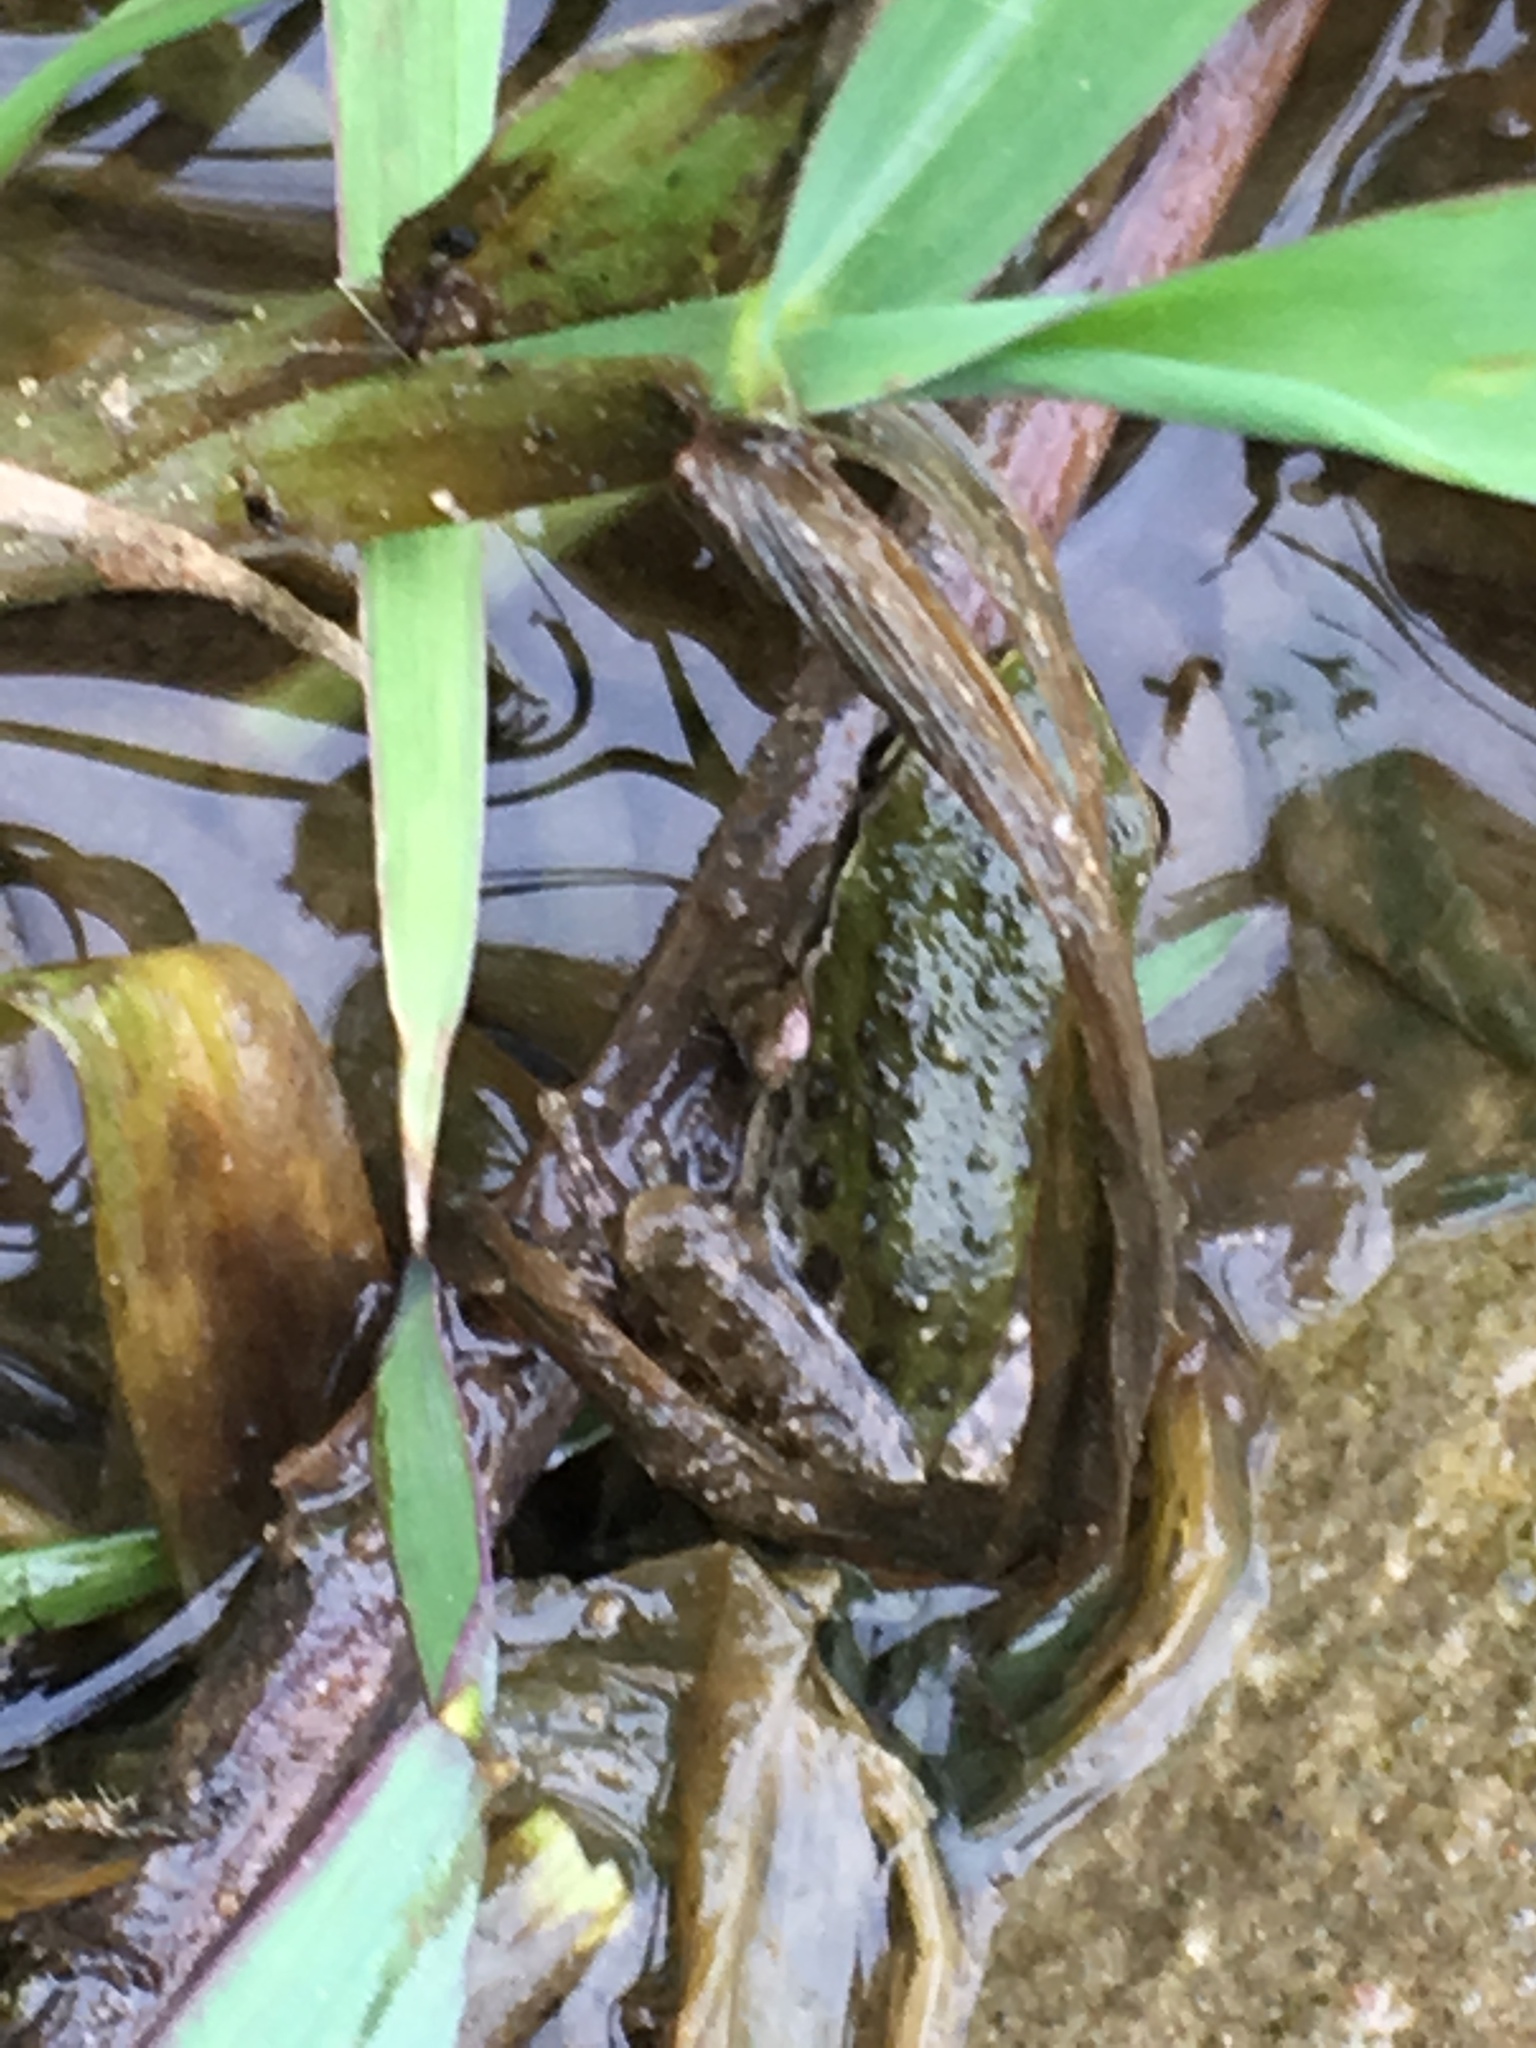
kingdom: Animalia
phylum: Chordata
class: Amphibia
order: Anura
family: Hylidae
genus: Pseudacris
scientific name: Pseudacris regilla
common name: Pacific chorus frog
